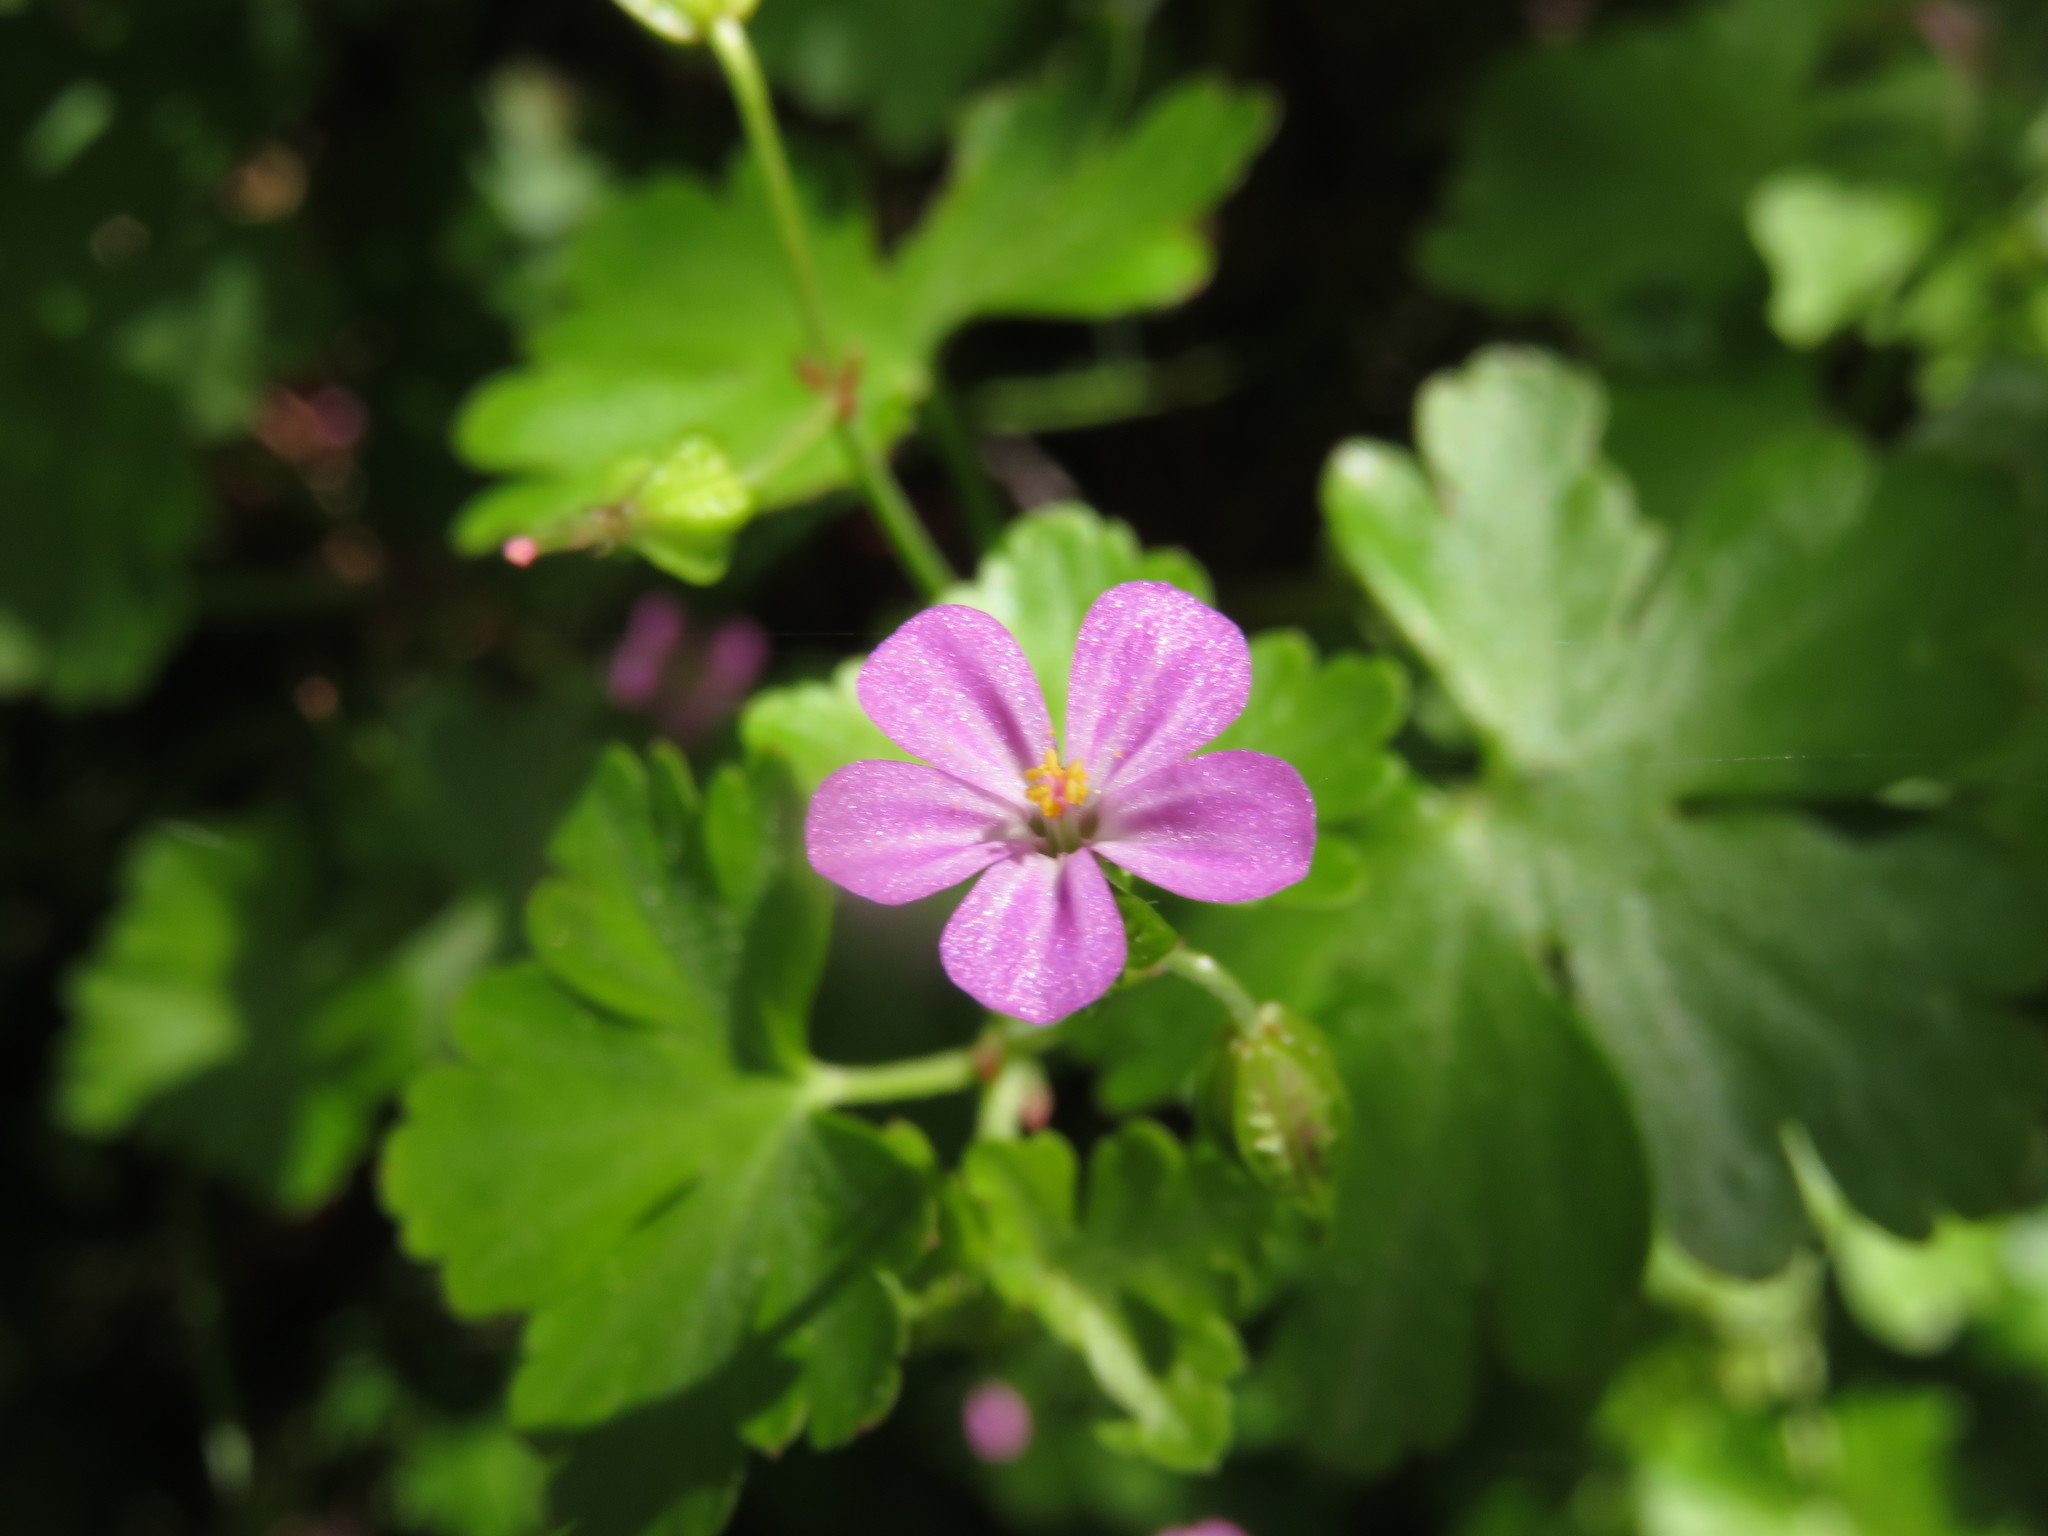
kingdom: Plantae
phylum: Tracheophyta
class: Magnoliopsida
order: Geraniales
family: Geraniaceae
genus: Geranium
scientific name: Geranium lucidum
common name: Shining crane's-bill
